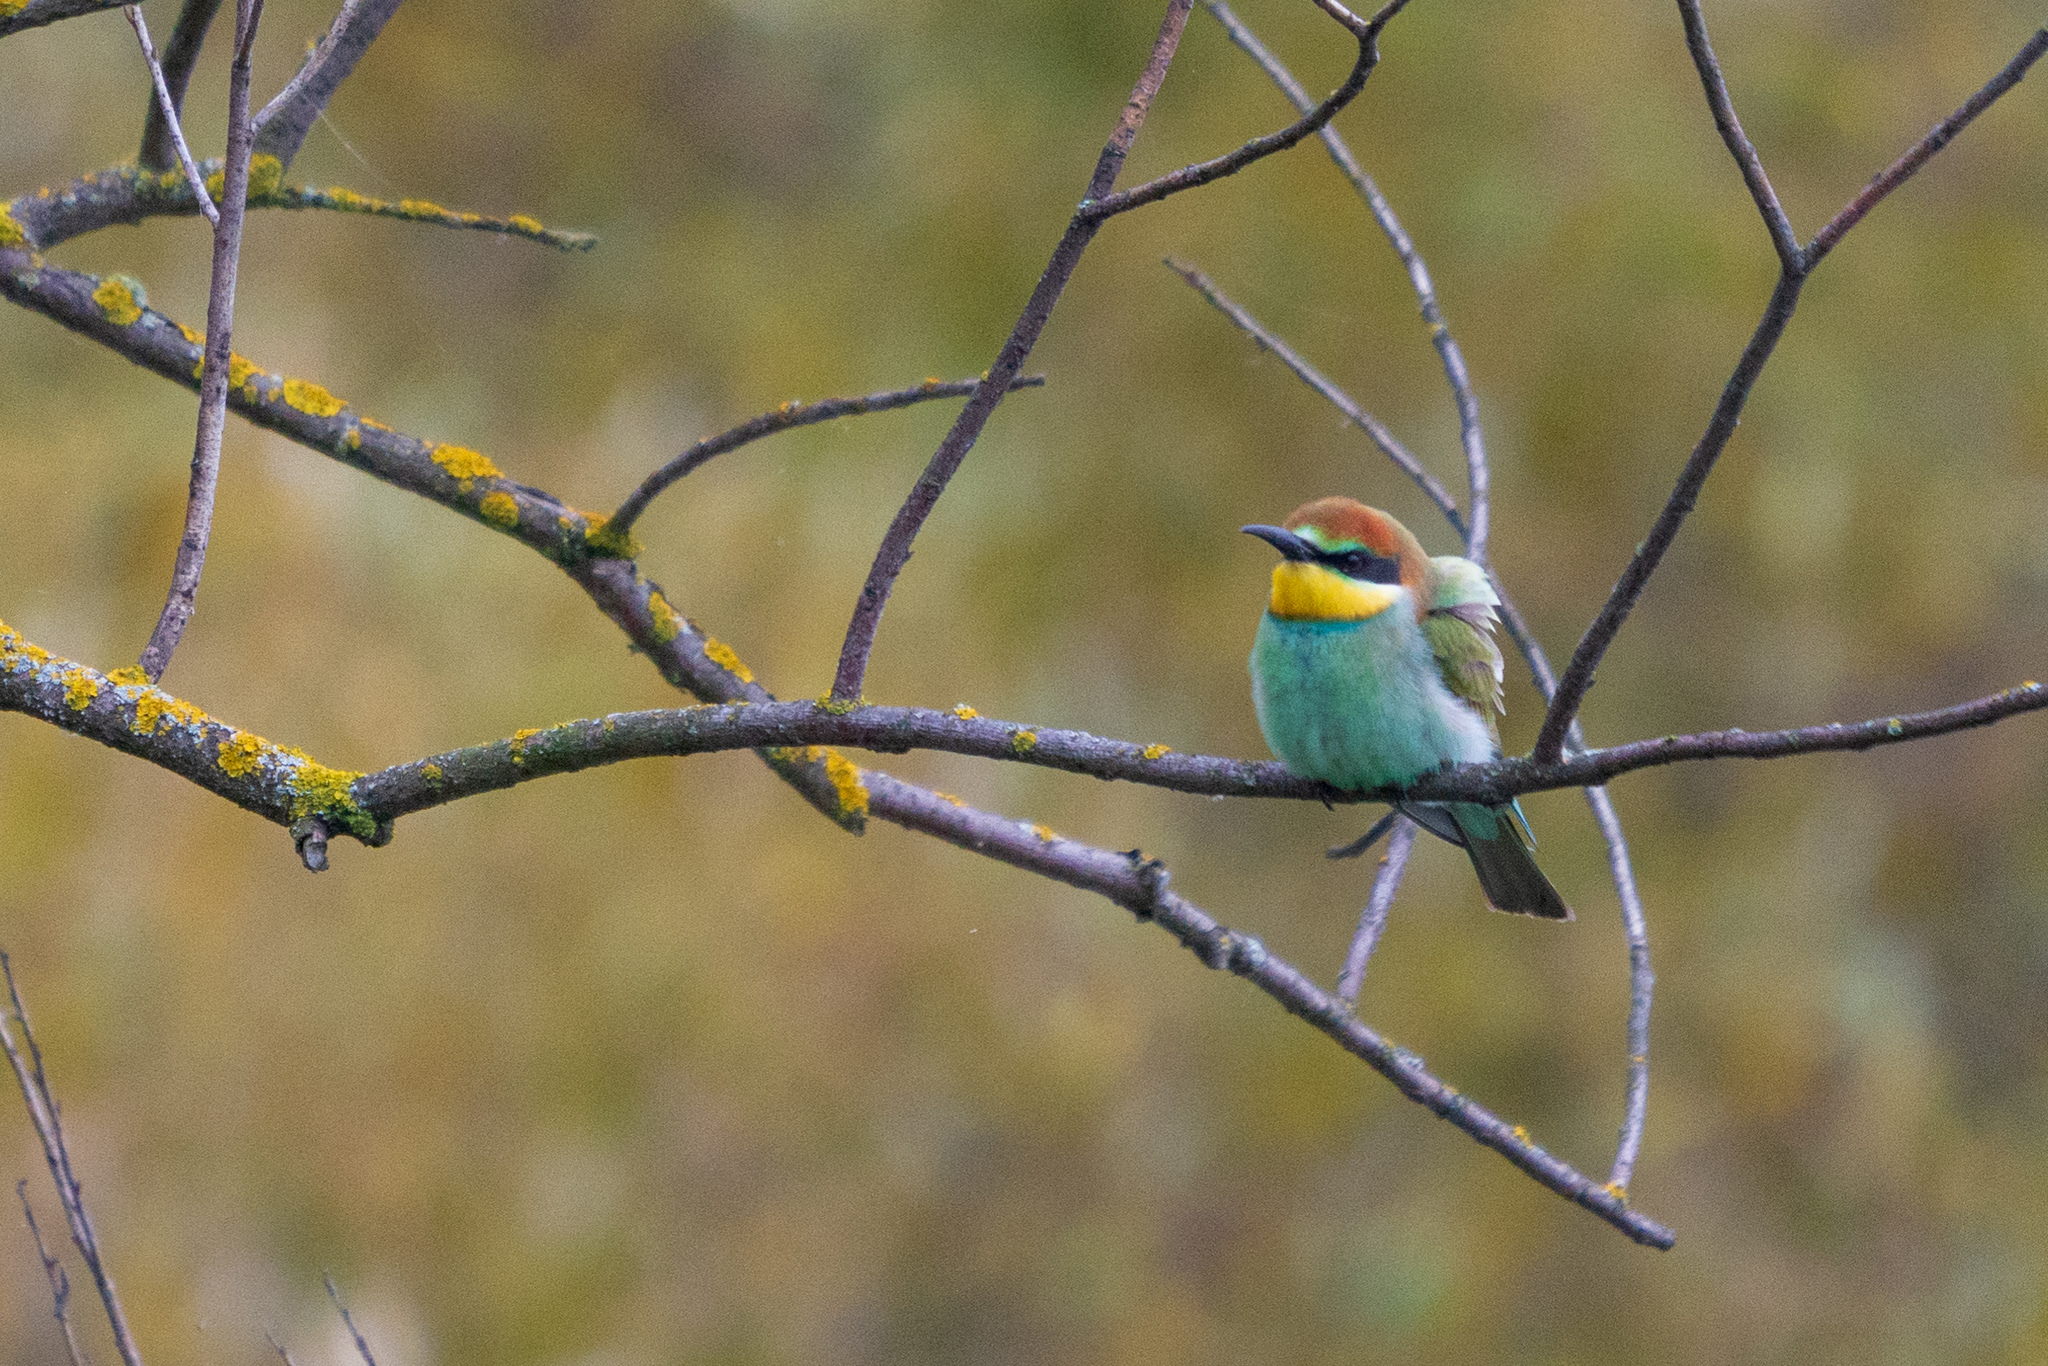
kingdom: Animalia
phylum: Chordata
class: Aves
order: Coraciiformes
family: Meropidae
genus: Merops
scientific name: Merops apiaster
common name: European bee-eater
